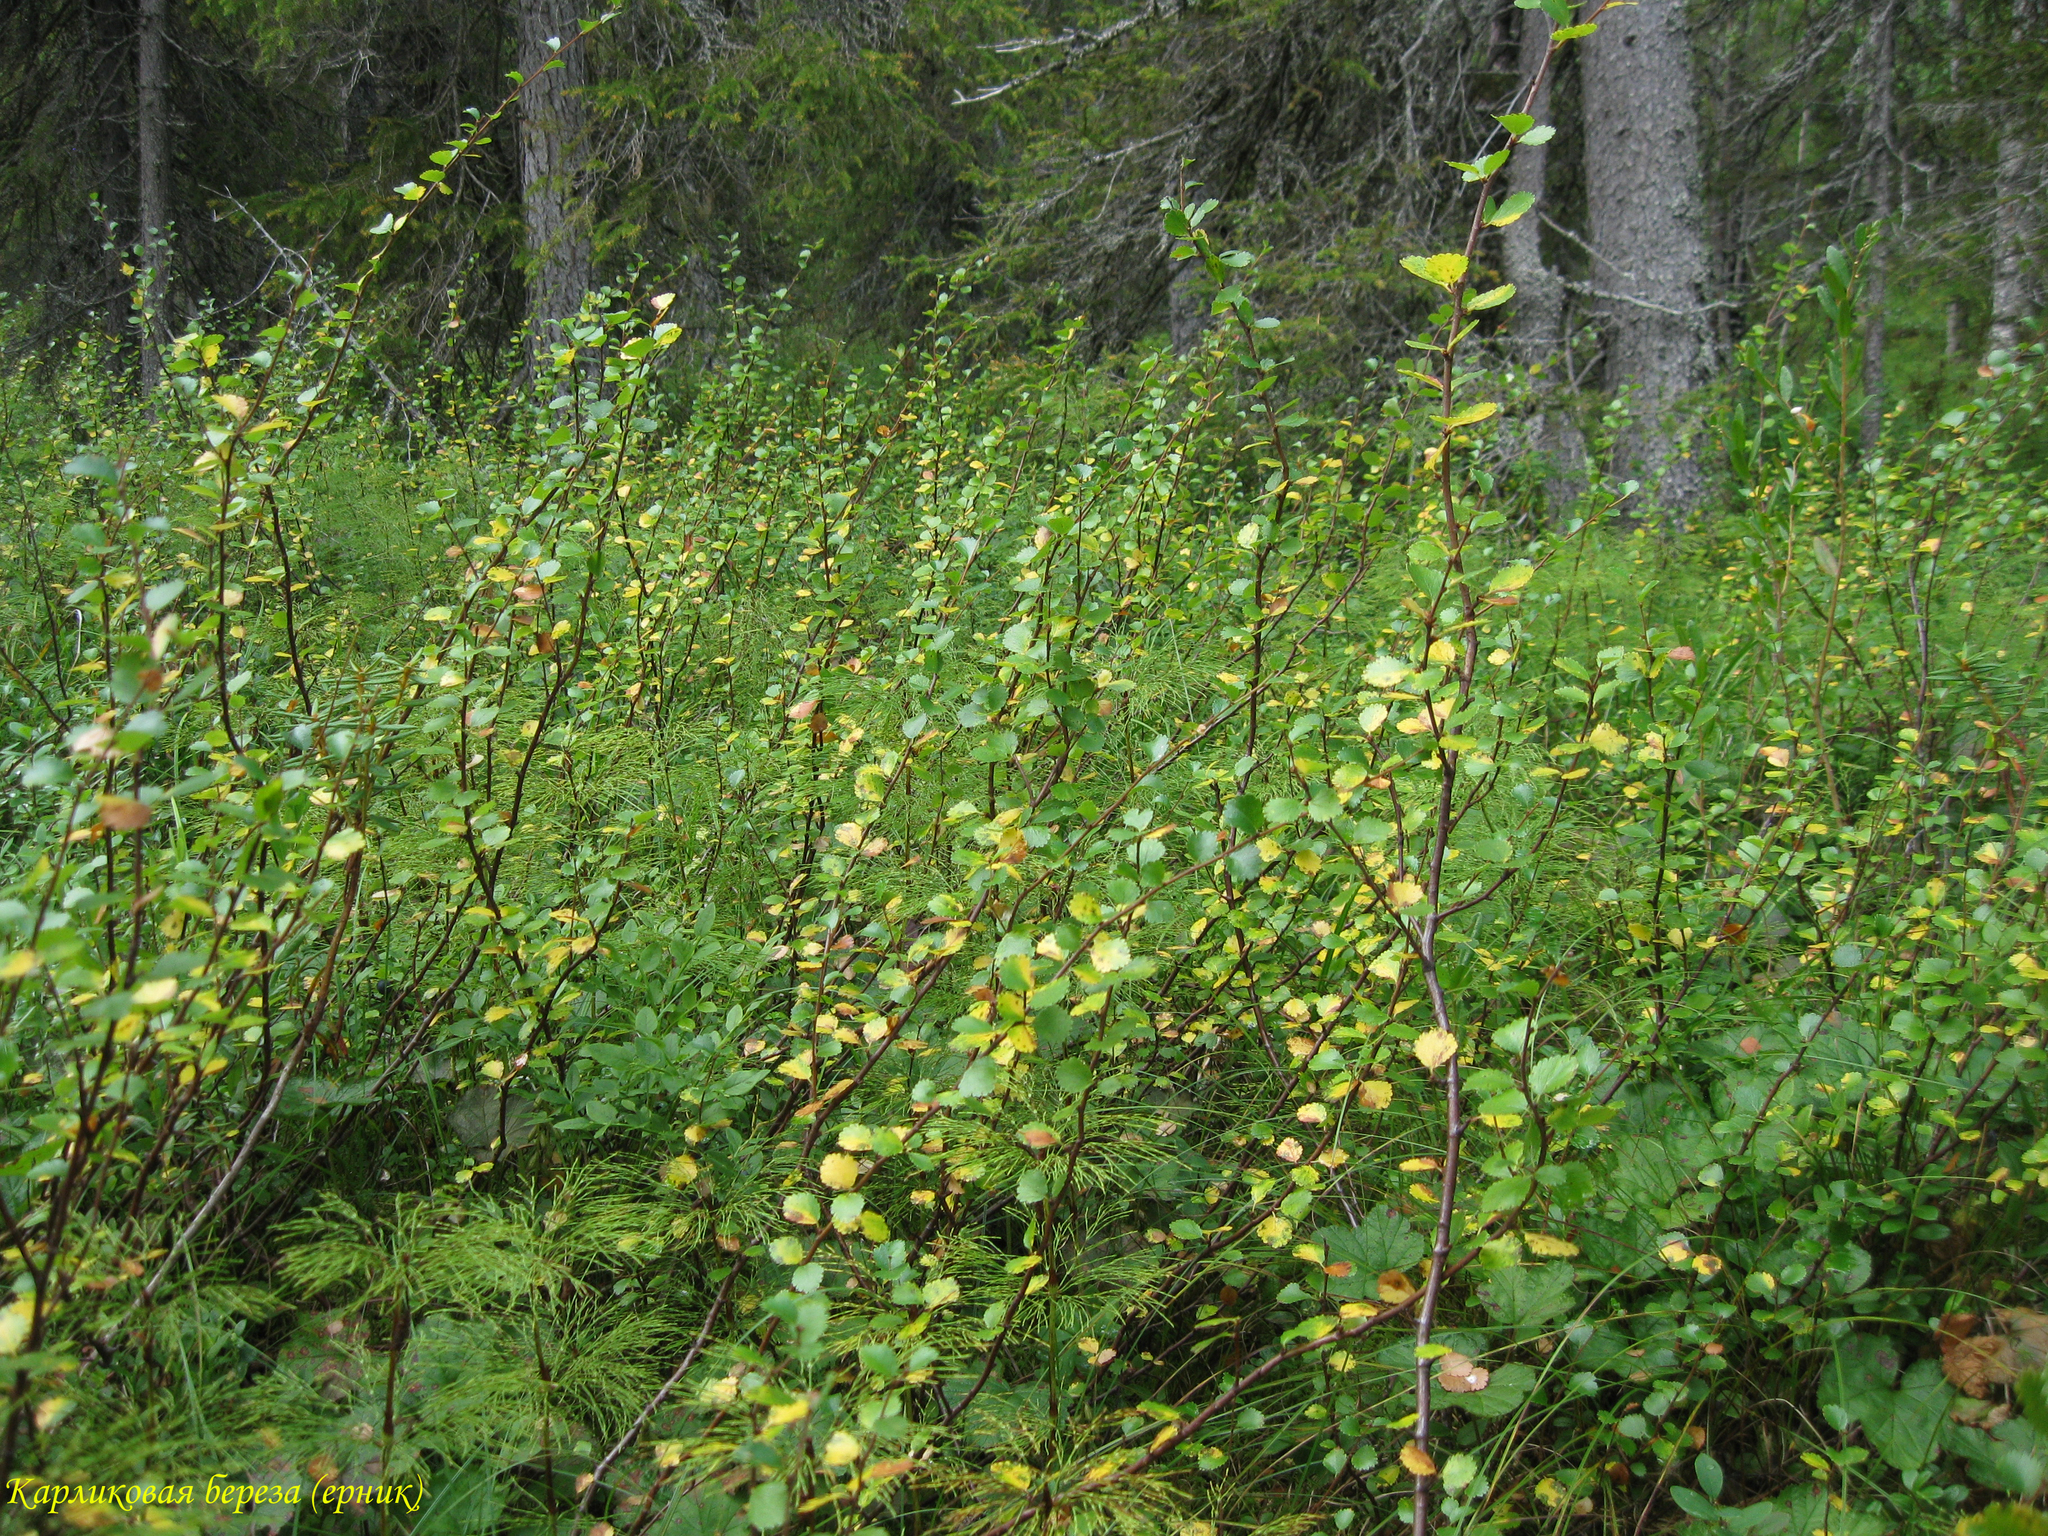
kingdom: Plantae
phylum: Tracheophyta
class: Magnoliopsida
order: Fagales
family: Betulaceae
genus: Betula
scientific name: Betula nana
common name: Arctic dwarf birch
